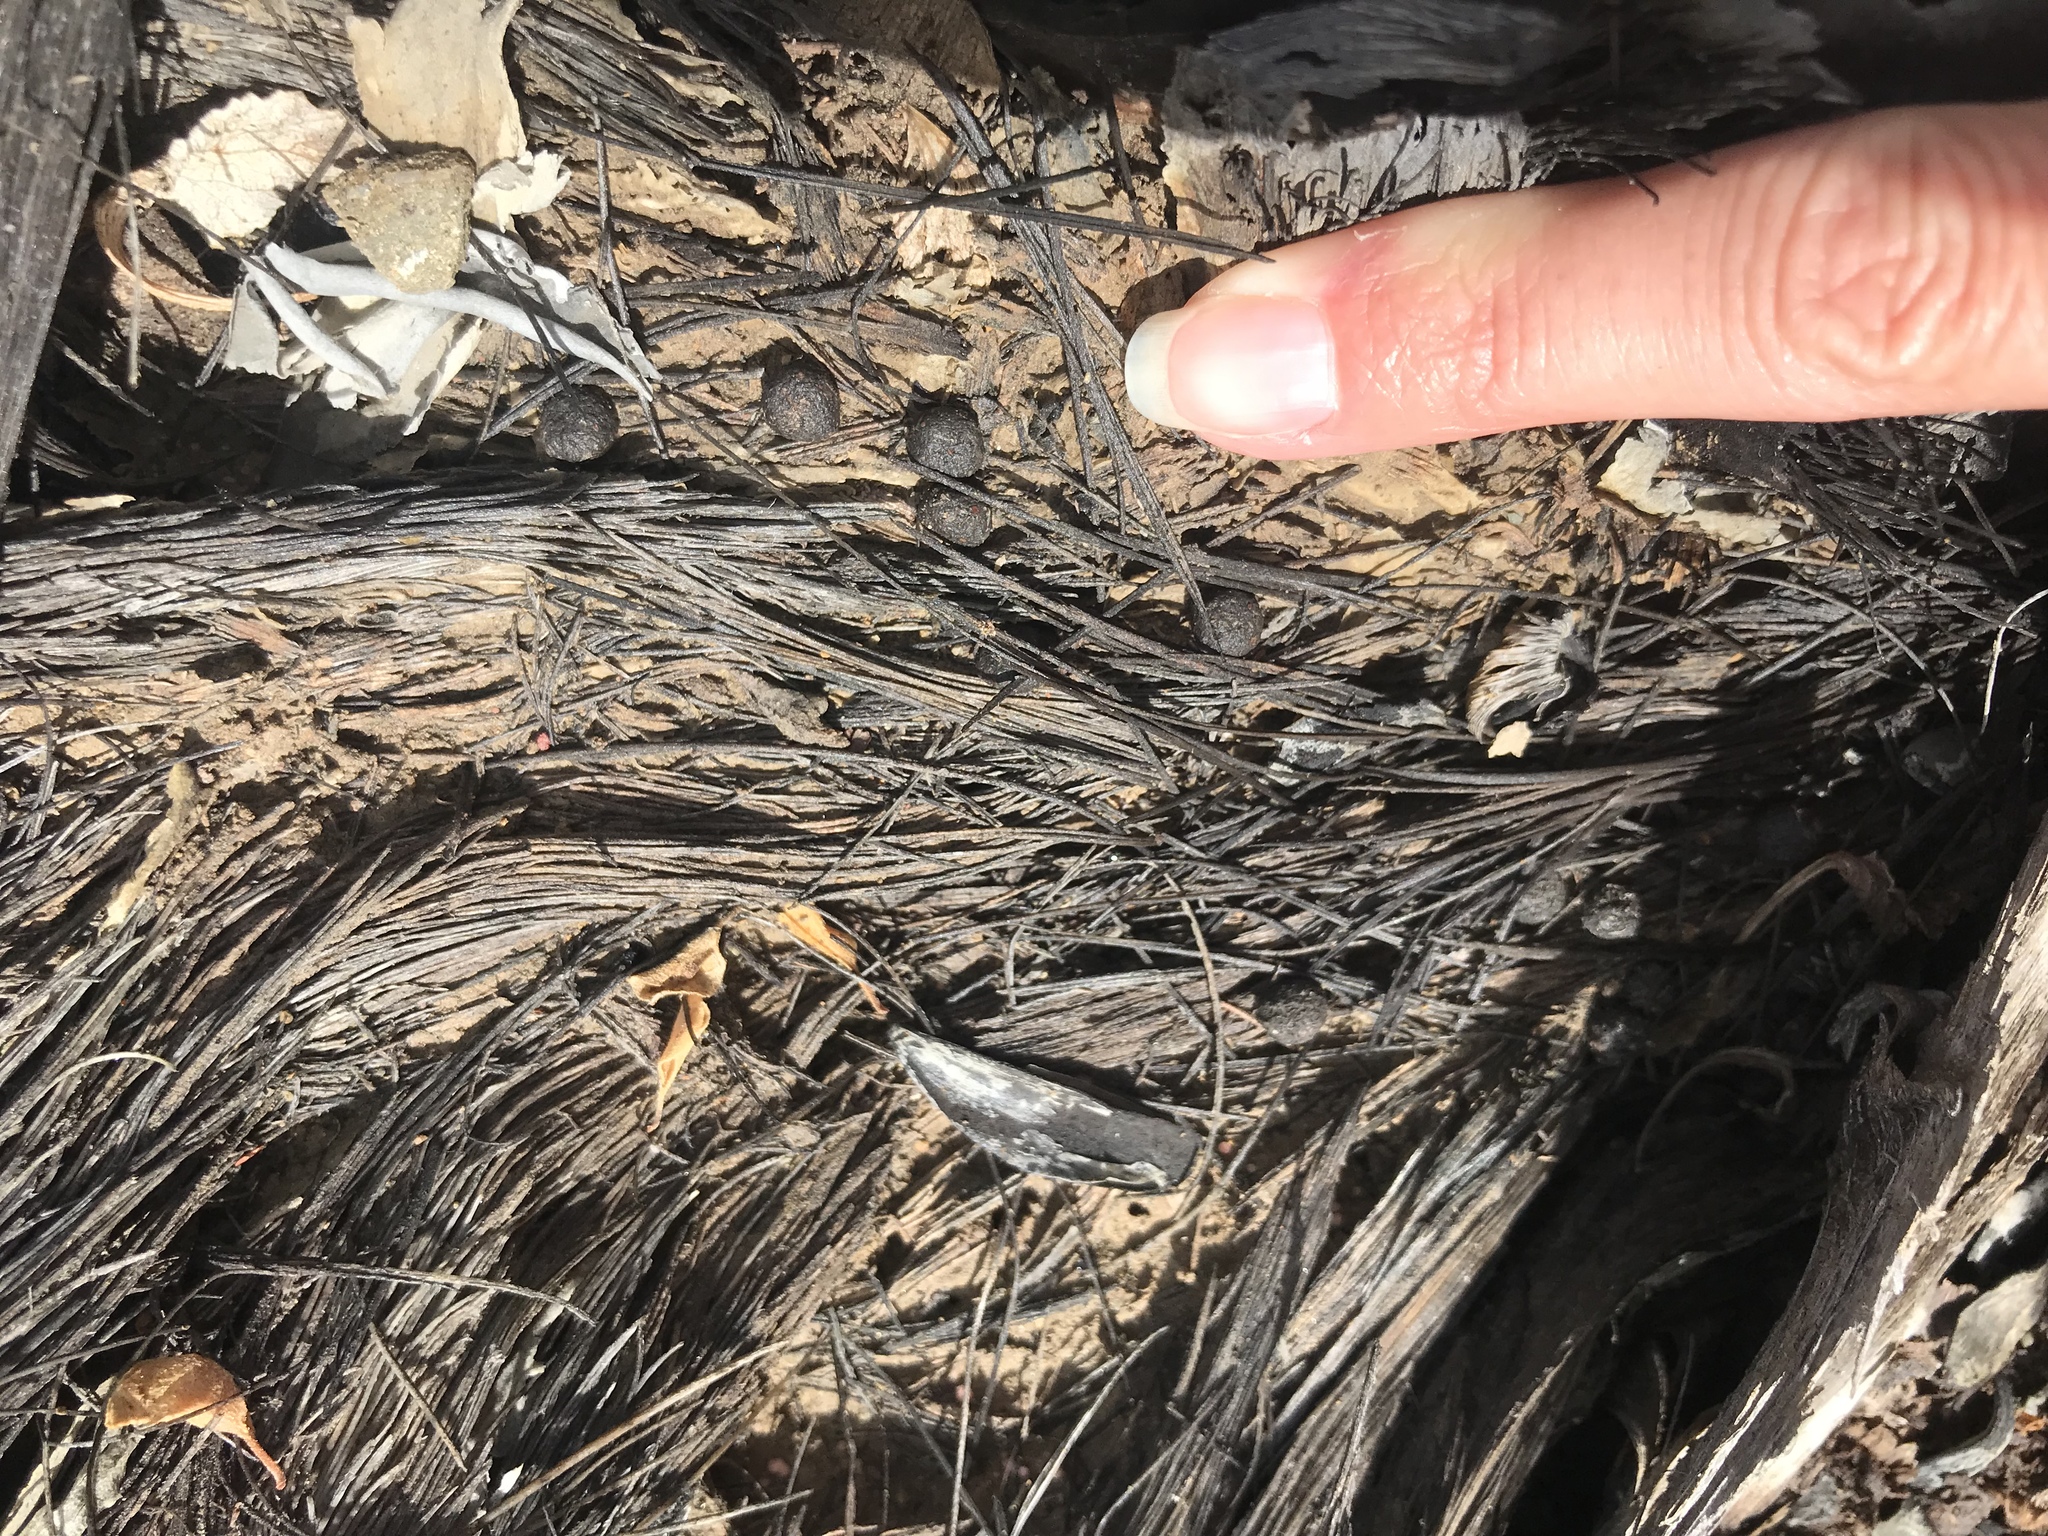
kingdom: Animalia
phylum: Chordata
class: Mammalia
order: Lagomorpha
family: Leporidae
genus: Sylvilagus
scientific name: Sylvilagus bachmani
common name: Brush rabbit
